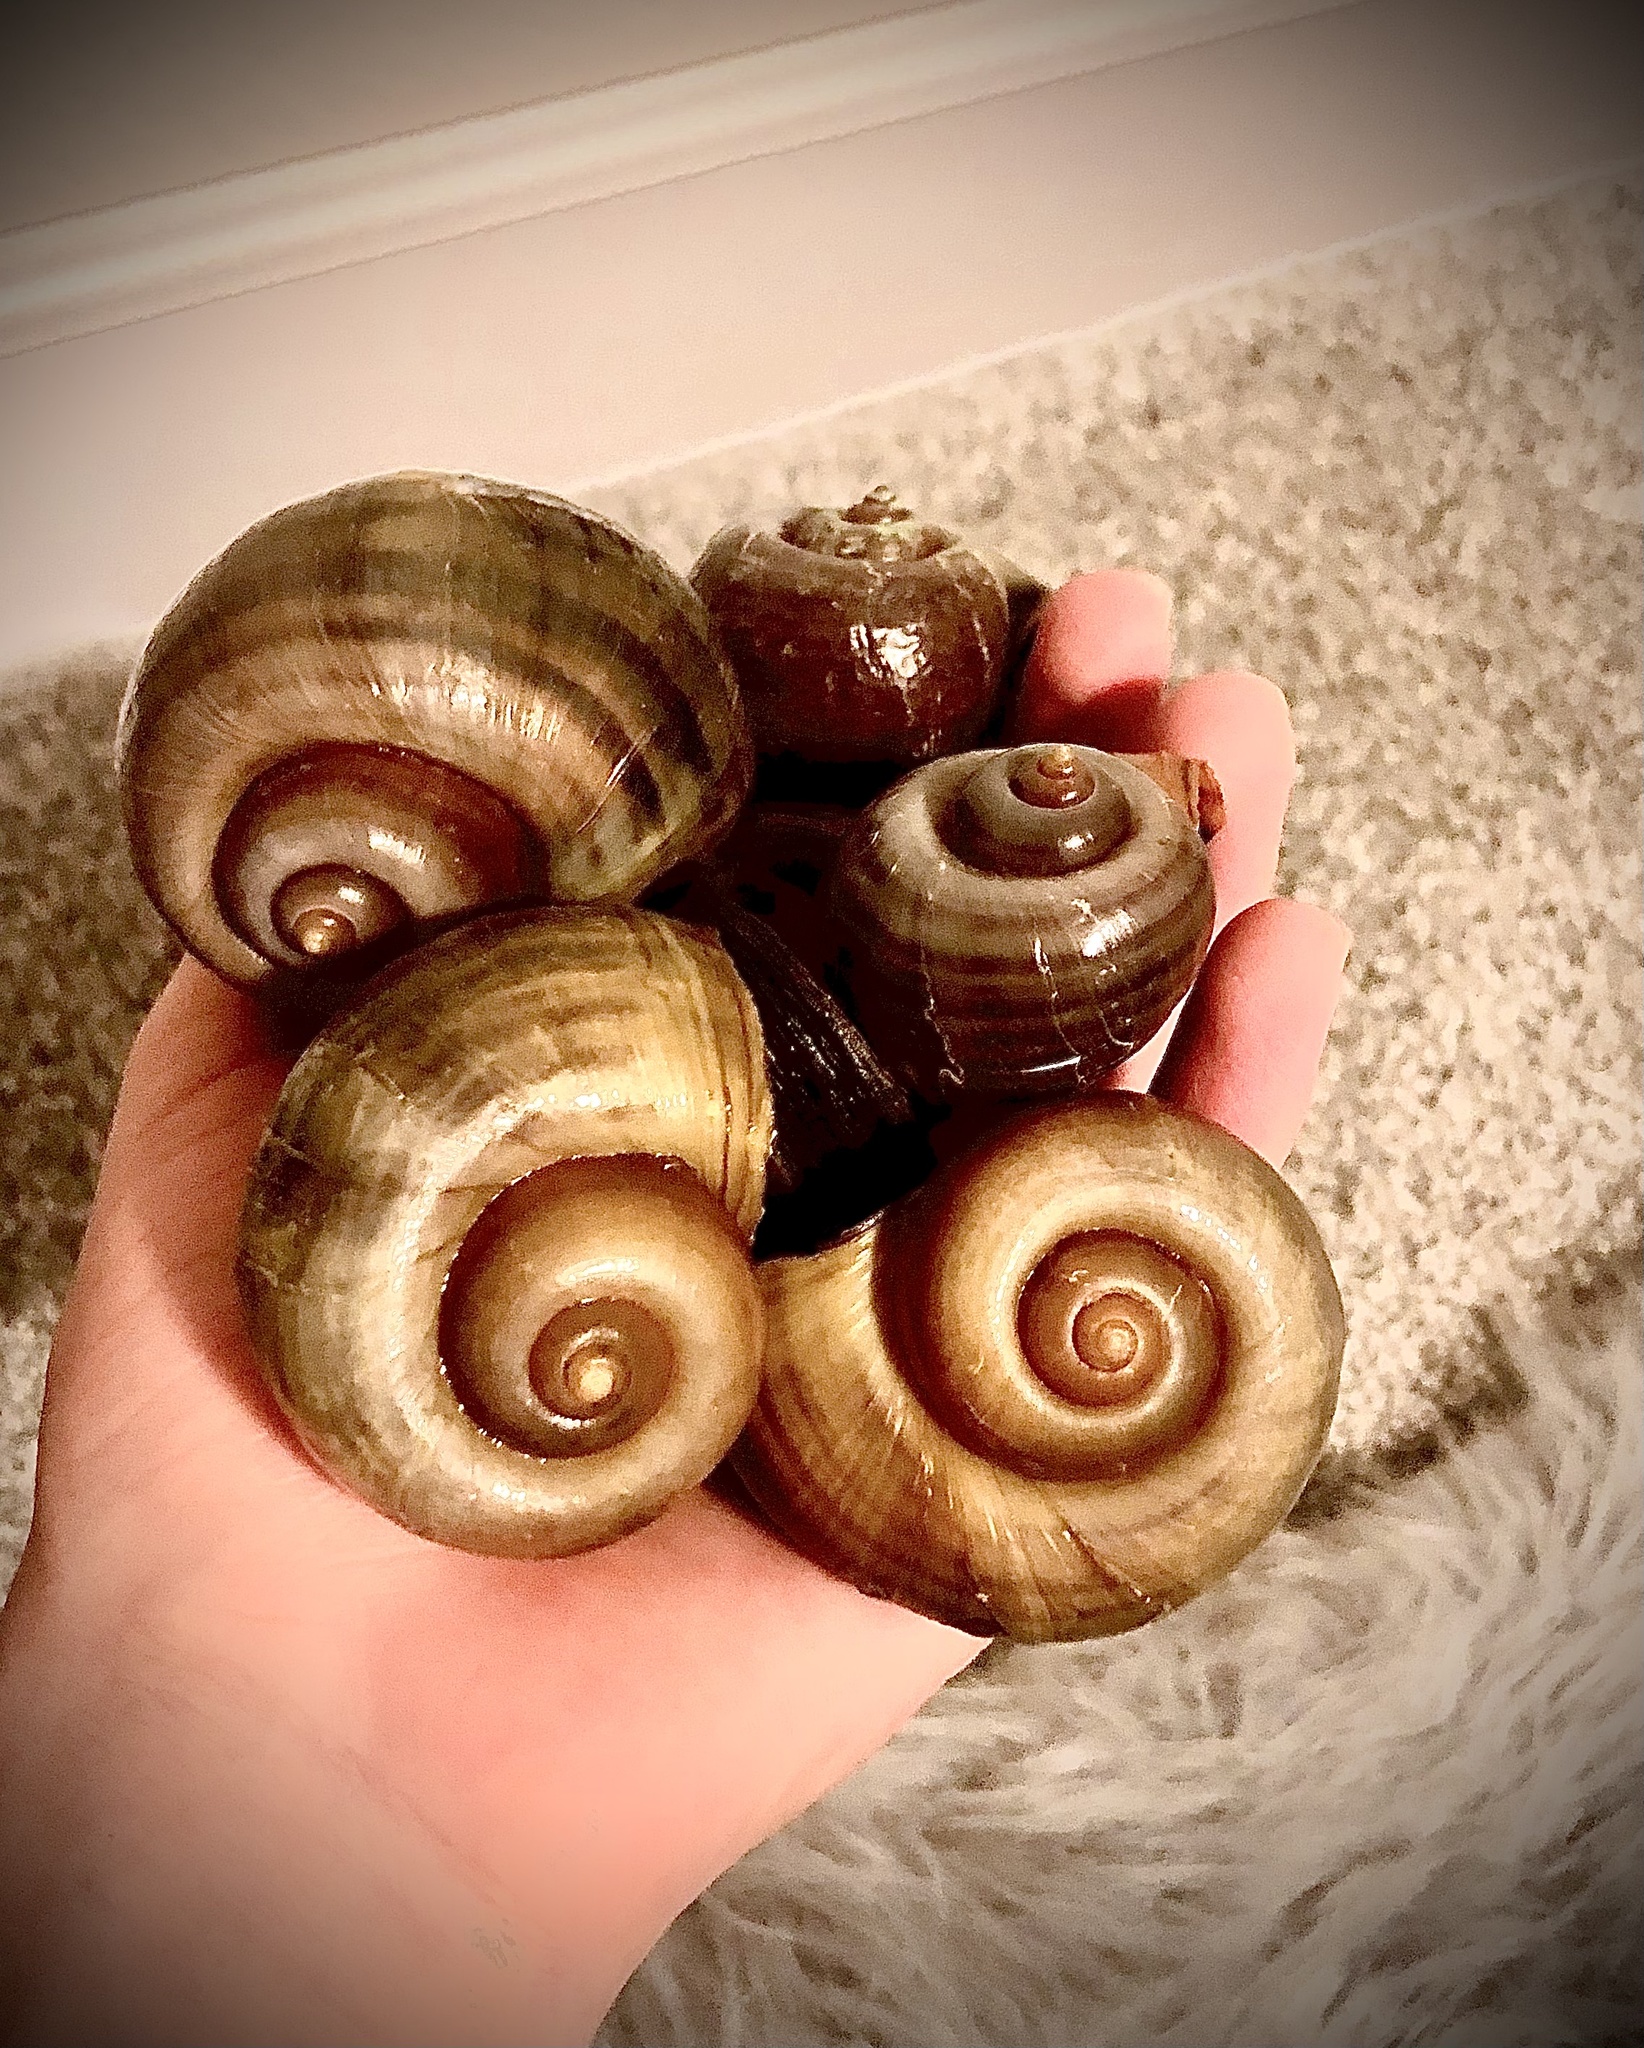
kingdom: Animalia
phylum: Mollusca
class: Gastropoda
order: Architaenioglossa
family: Ampullariidae
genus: Pomacea
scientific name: Pomacea canaliculata
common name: Channeled applesnail
